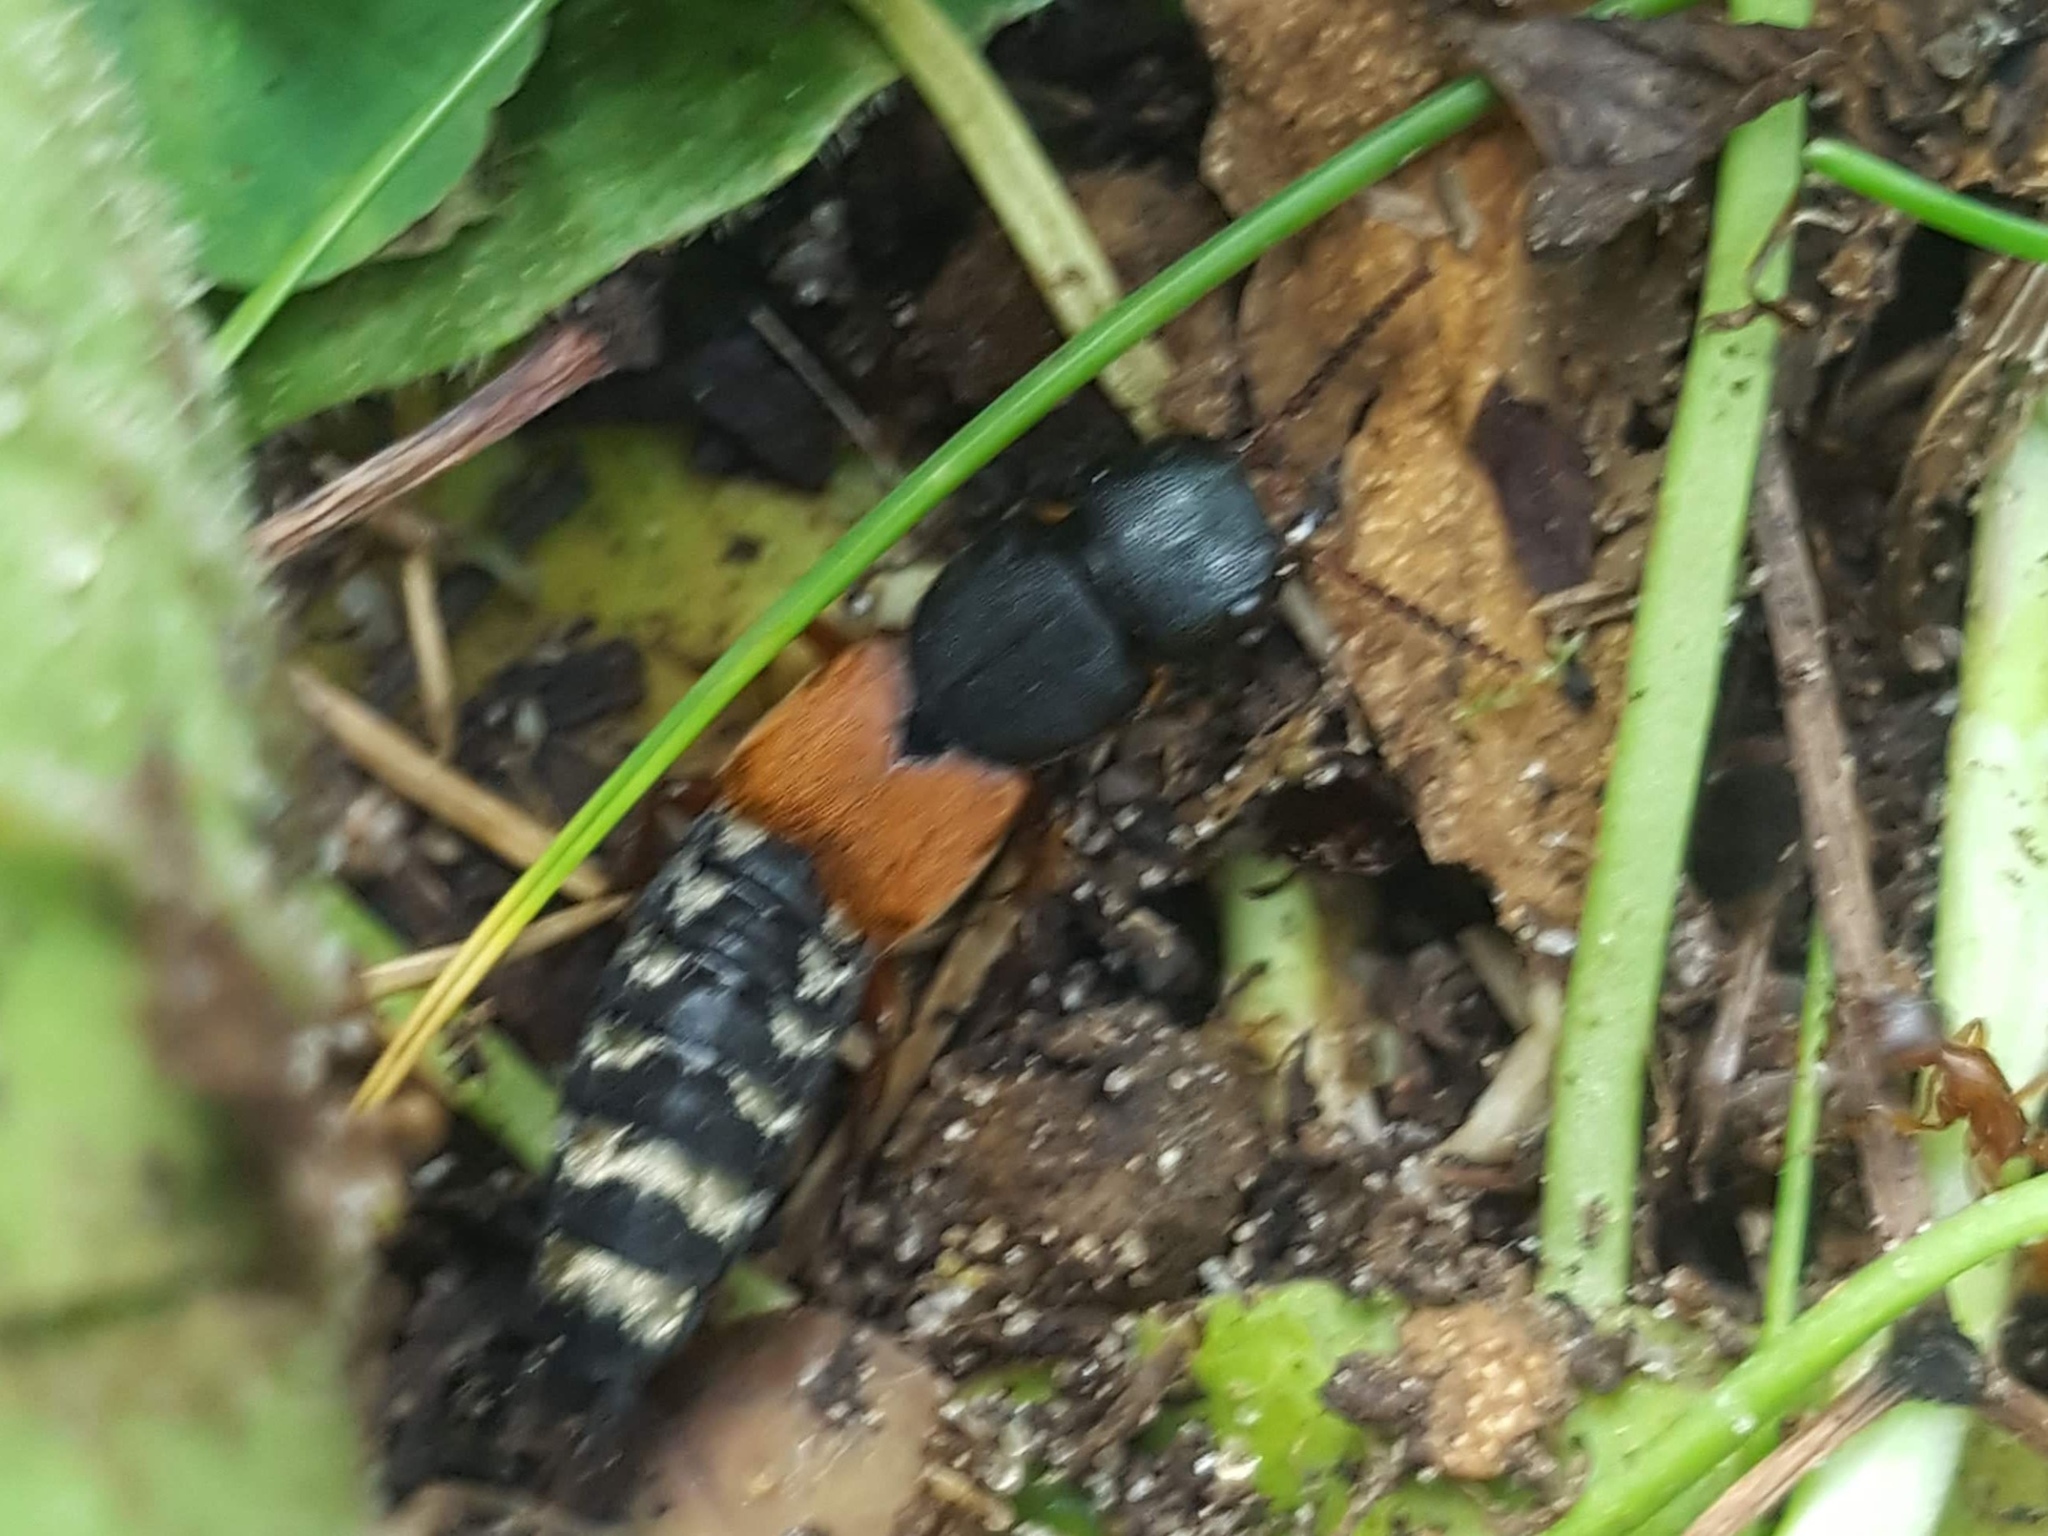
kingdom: Animalia
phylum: Arthropoda
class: Insecta
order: Coleoptera
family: Staphylinidae
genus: Platydracus
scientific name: Platydracus stercorarius
